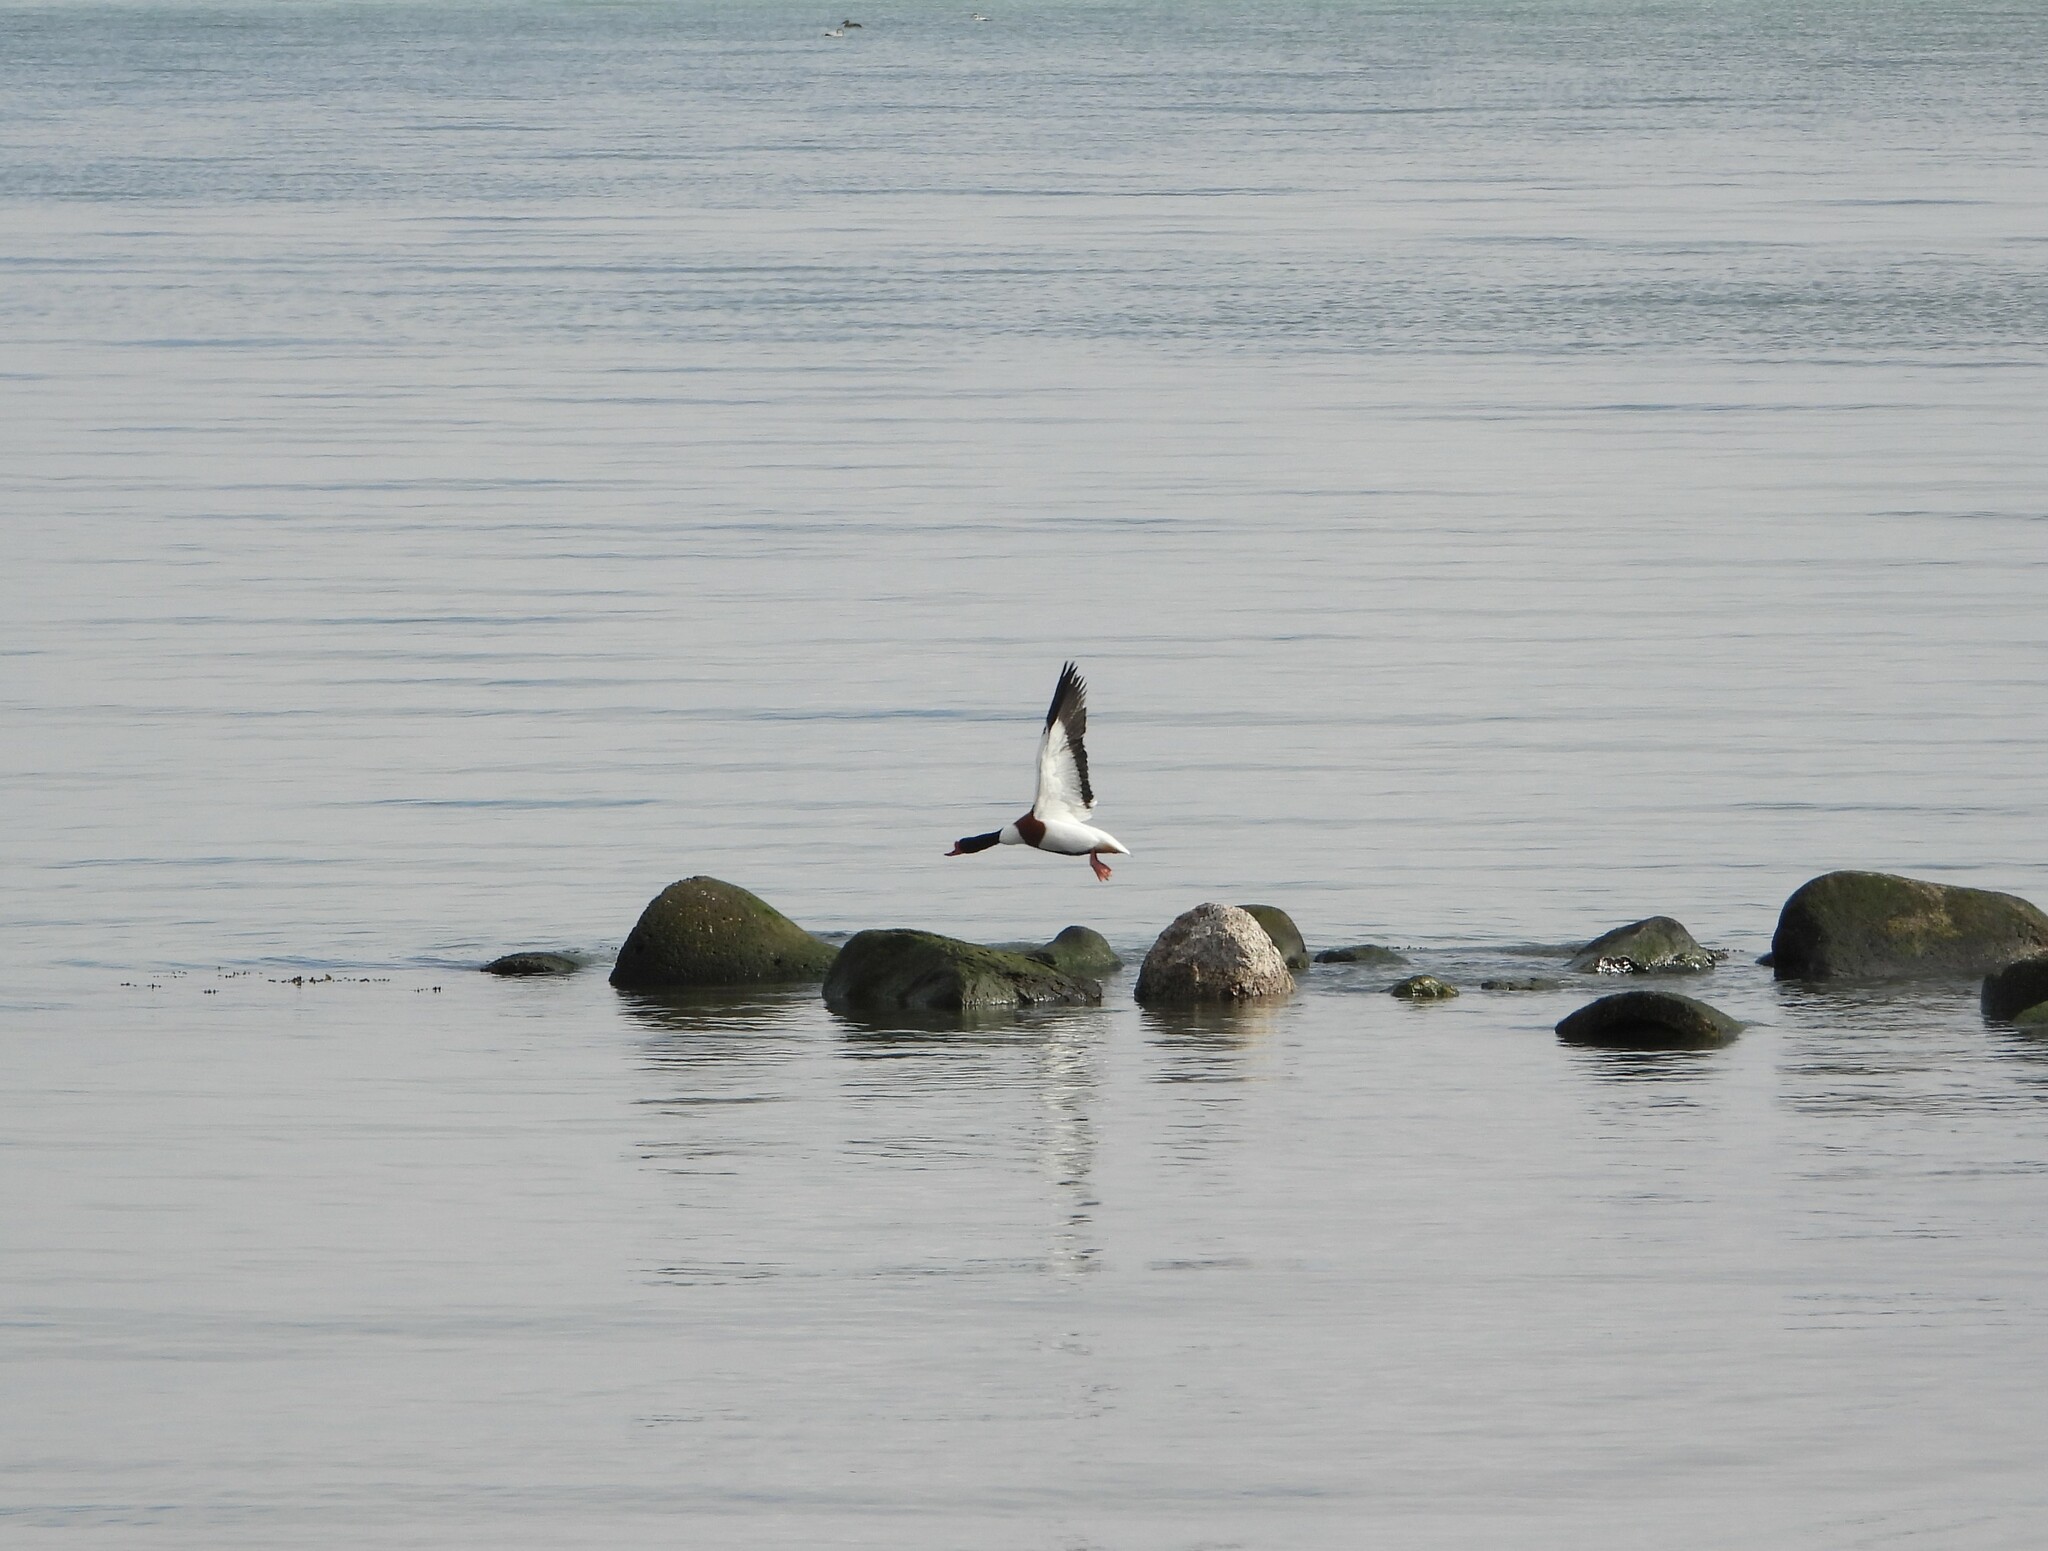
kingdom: Animalia
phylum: Chordata
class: Aves
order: Anseriformes
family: Anatidae
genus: Tadorna
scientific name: Tadorna tadorna
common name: Common shelduck
